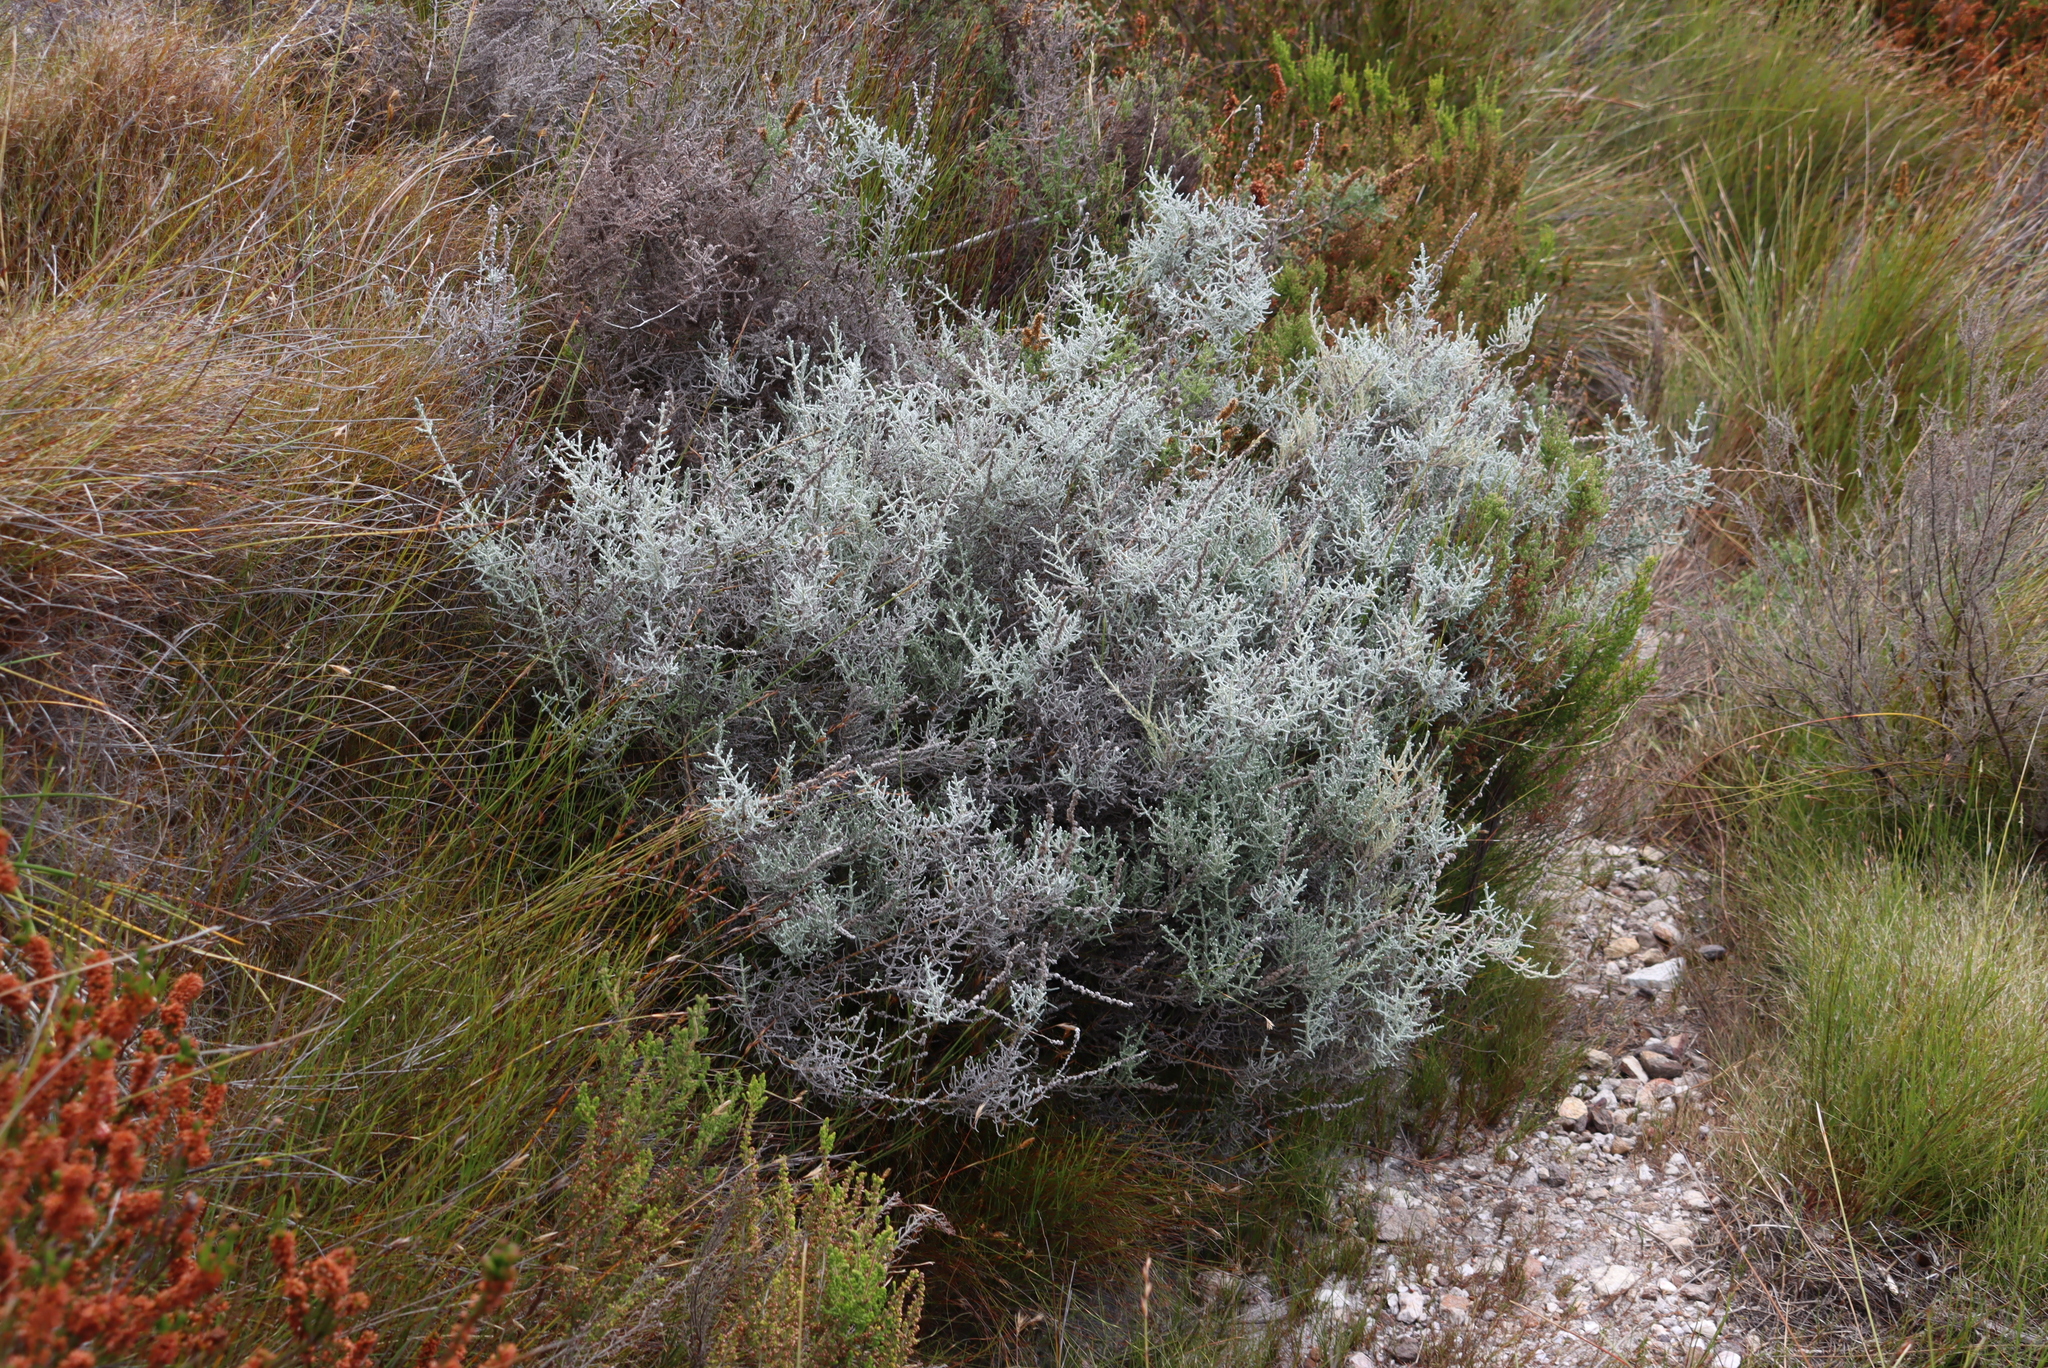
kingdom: Plantae
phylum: Tracheophyta
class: Magnoliopsida
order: Asterales
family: Asteraceae
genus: Seriphium
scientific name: Seriphium plumosum
